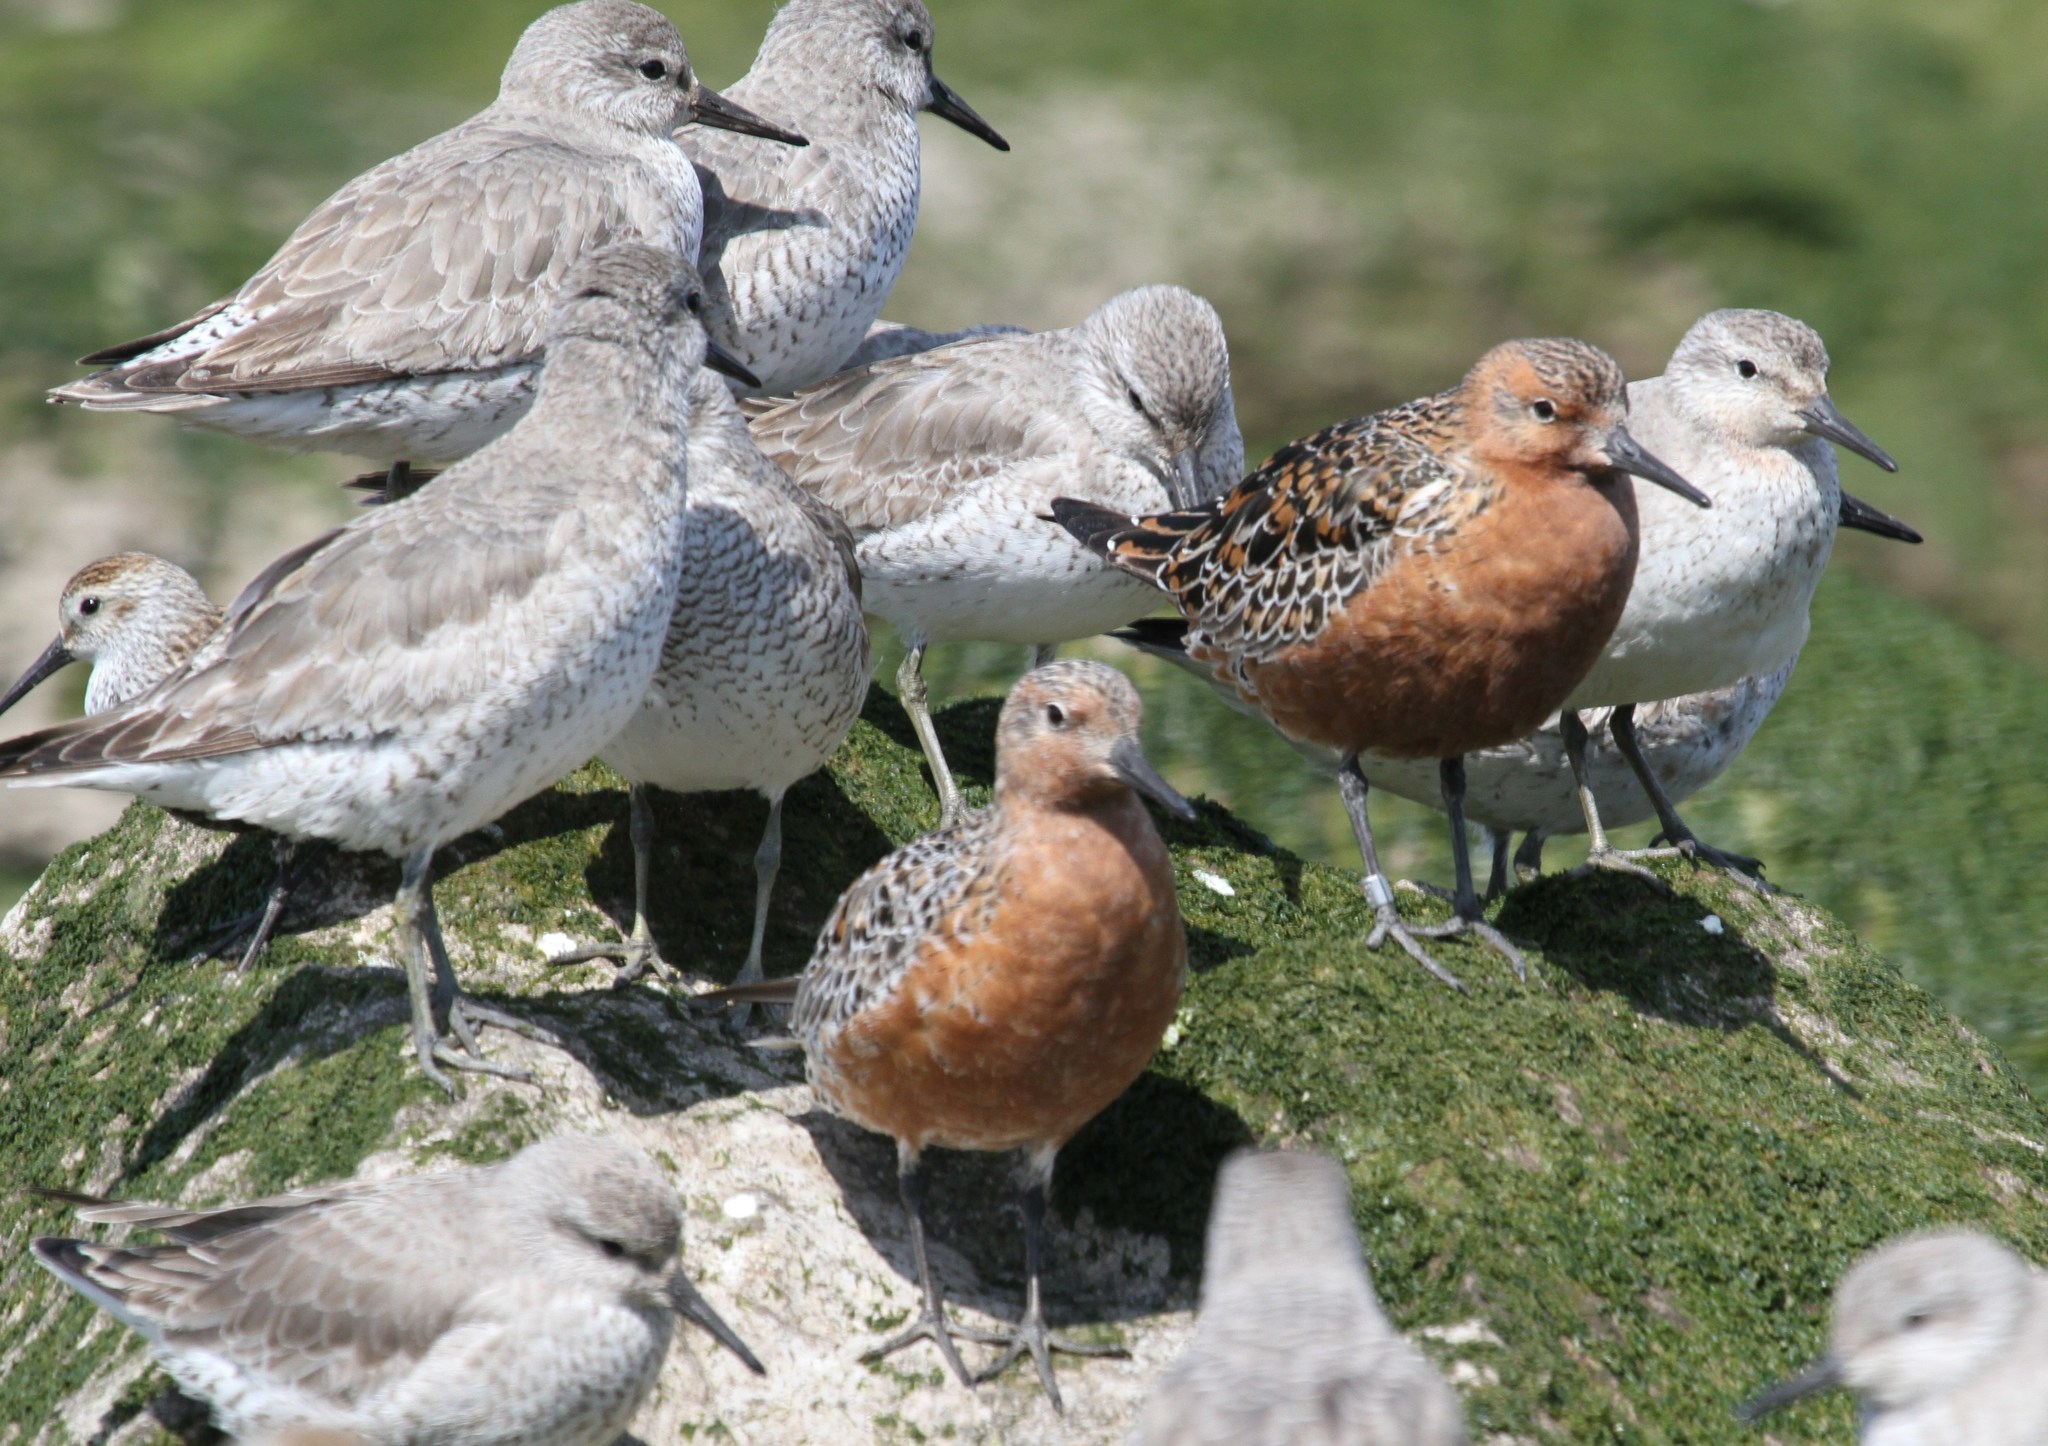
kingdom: Animalia
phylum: Chordata
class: Aves
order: Charadriiformes
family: Scolopacidae
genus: Calidris
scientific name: Calidris canutus
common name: Red knot
